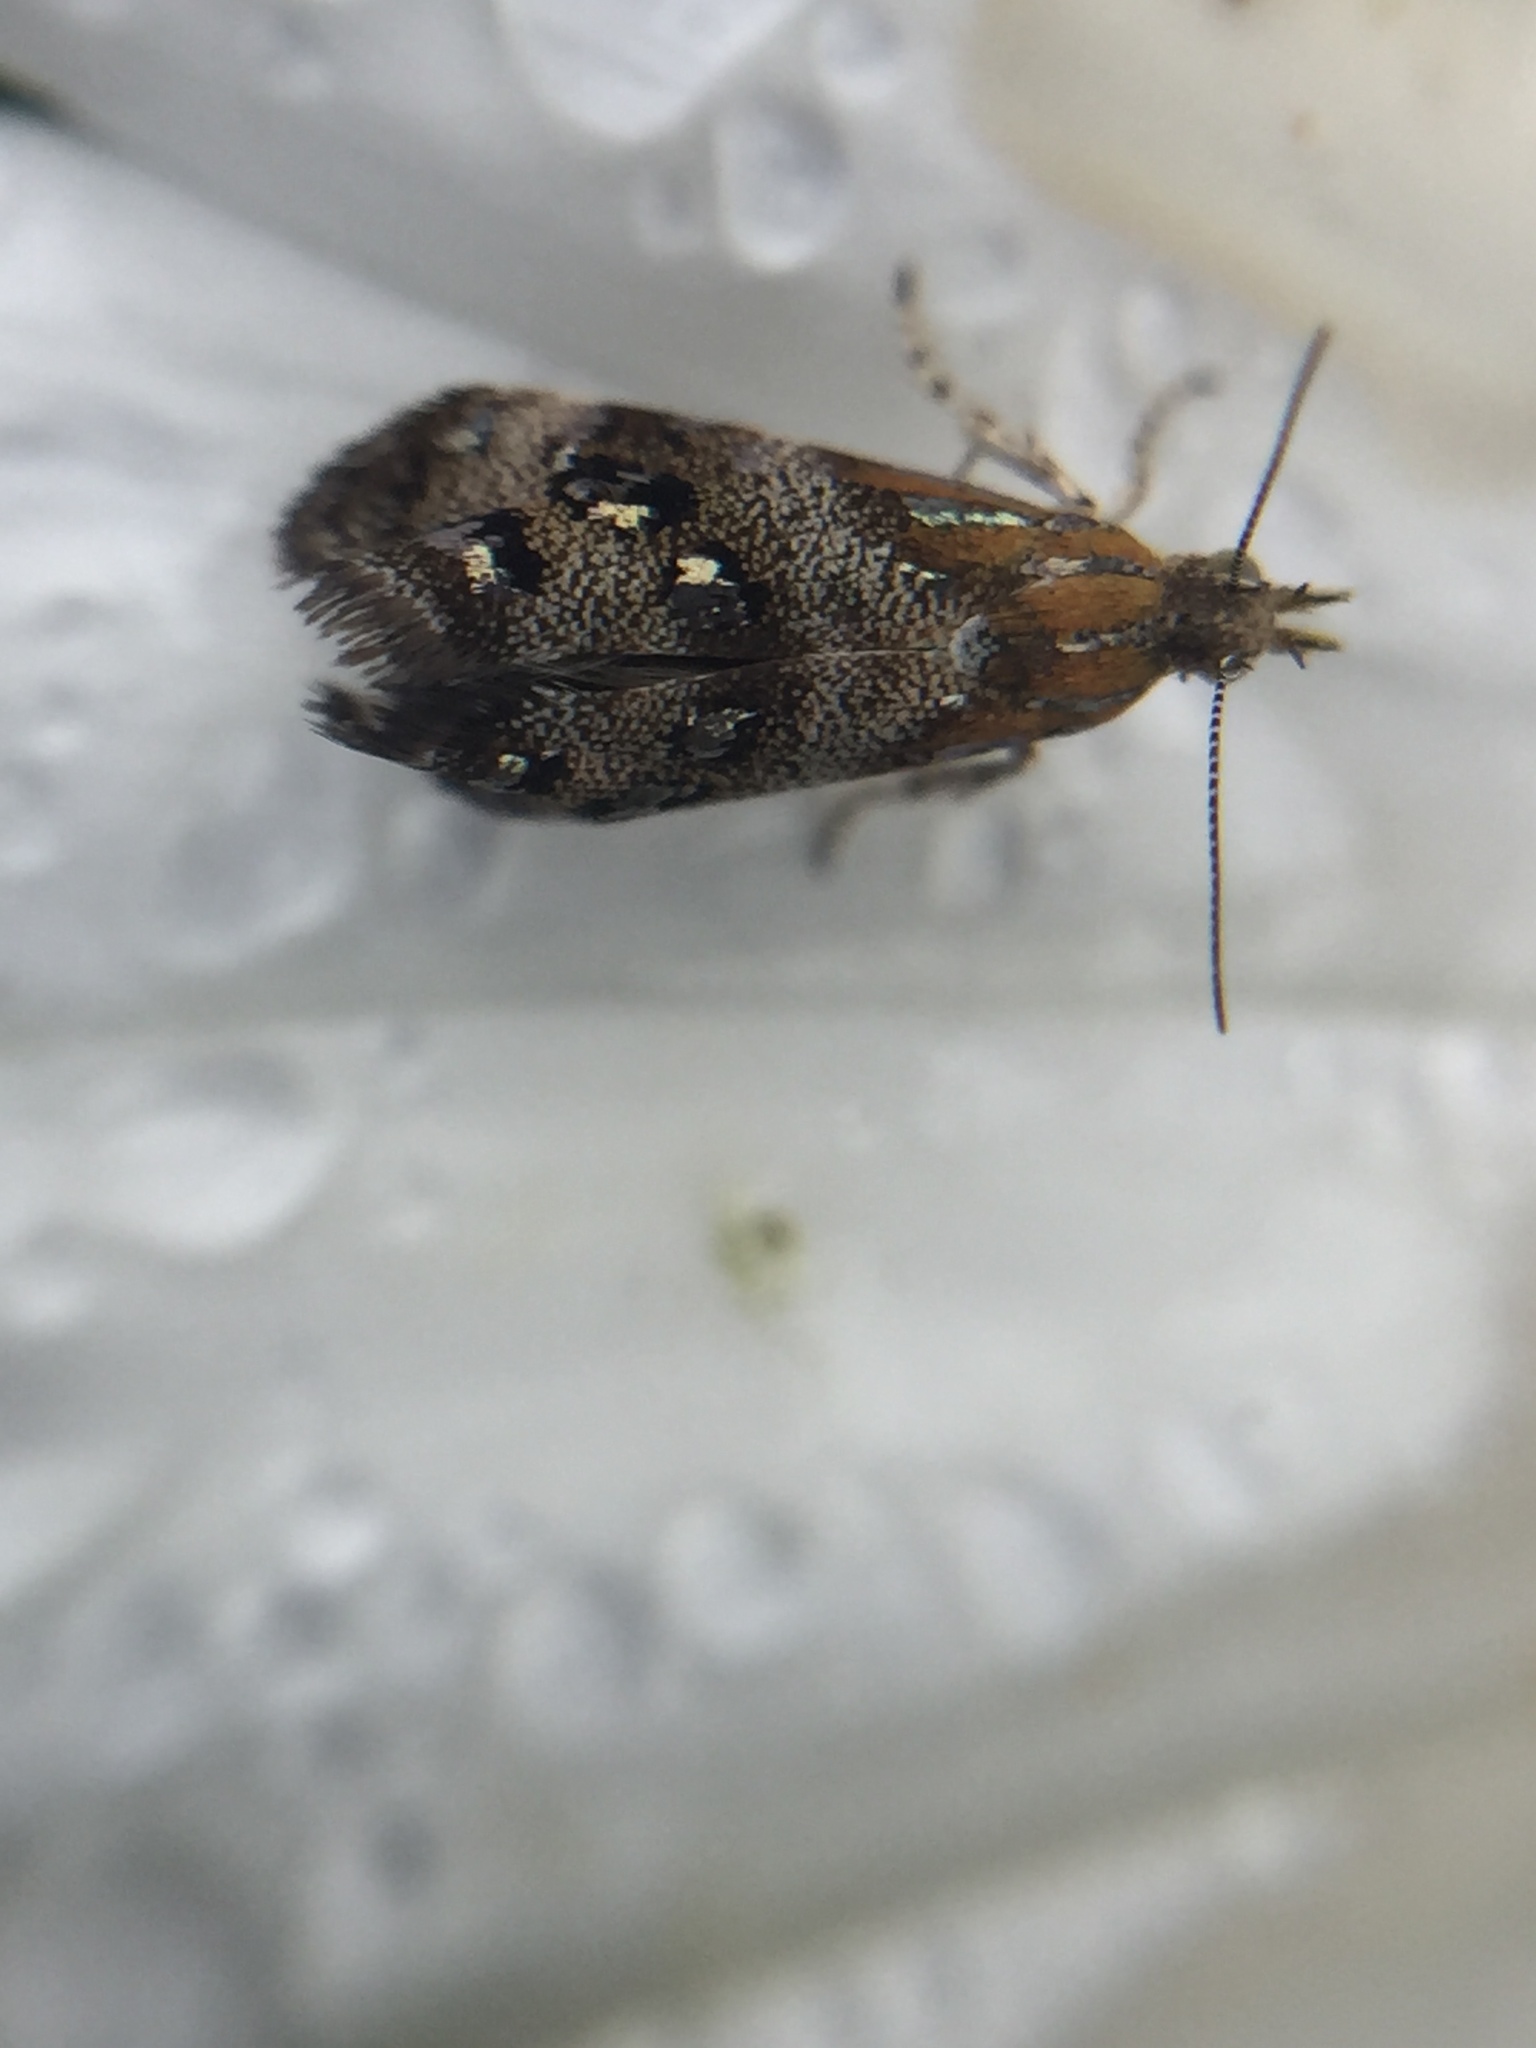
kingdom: Animalia
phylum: Arthropoda
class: Insecta
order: Lepidoptera
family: Choreutidae
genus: Tebenna
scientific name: Tebenna micalis
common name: Vagrant twitcher
